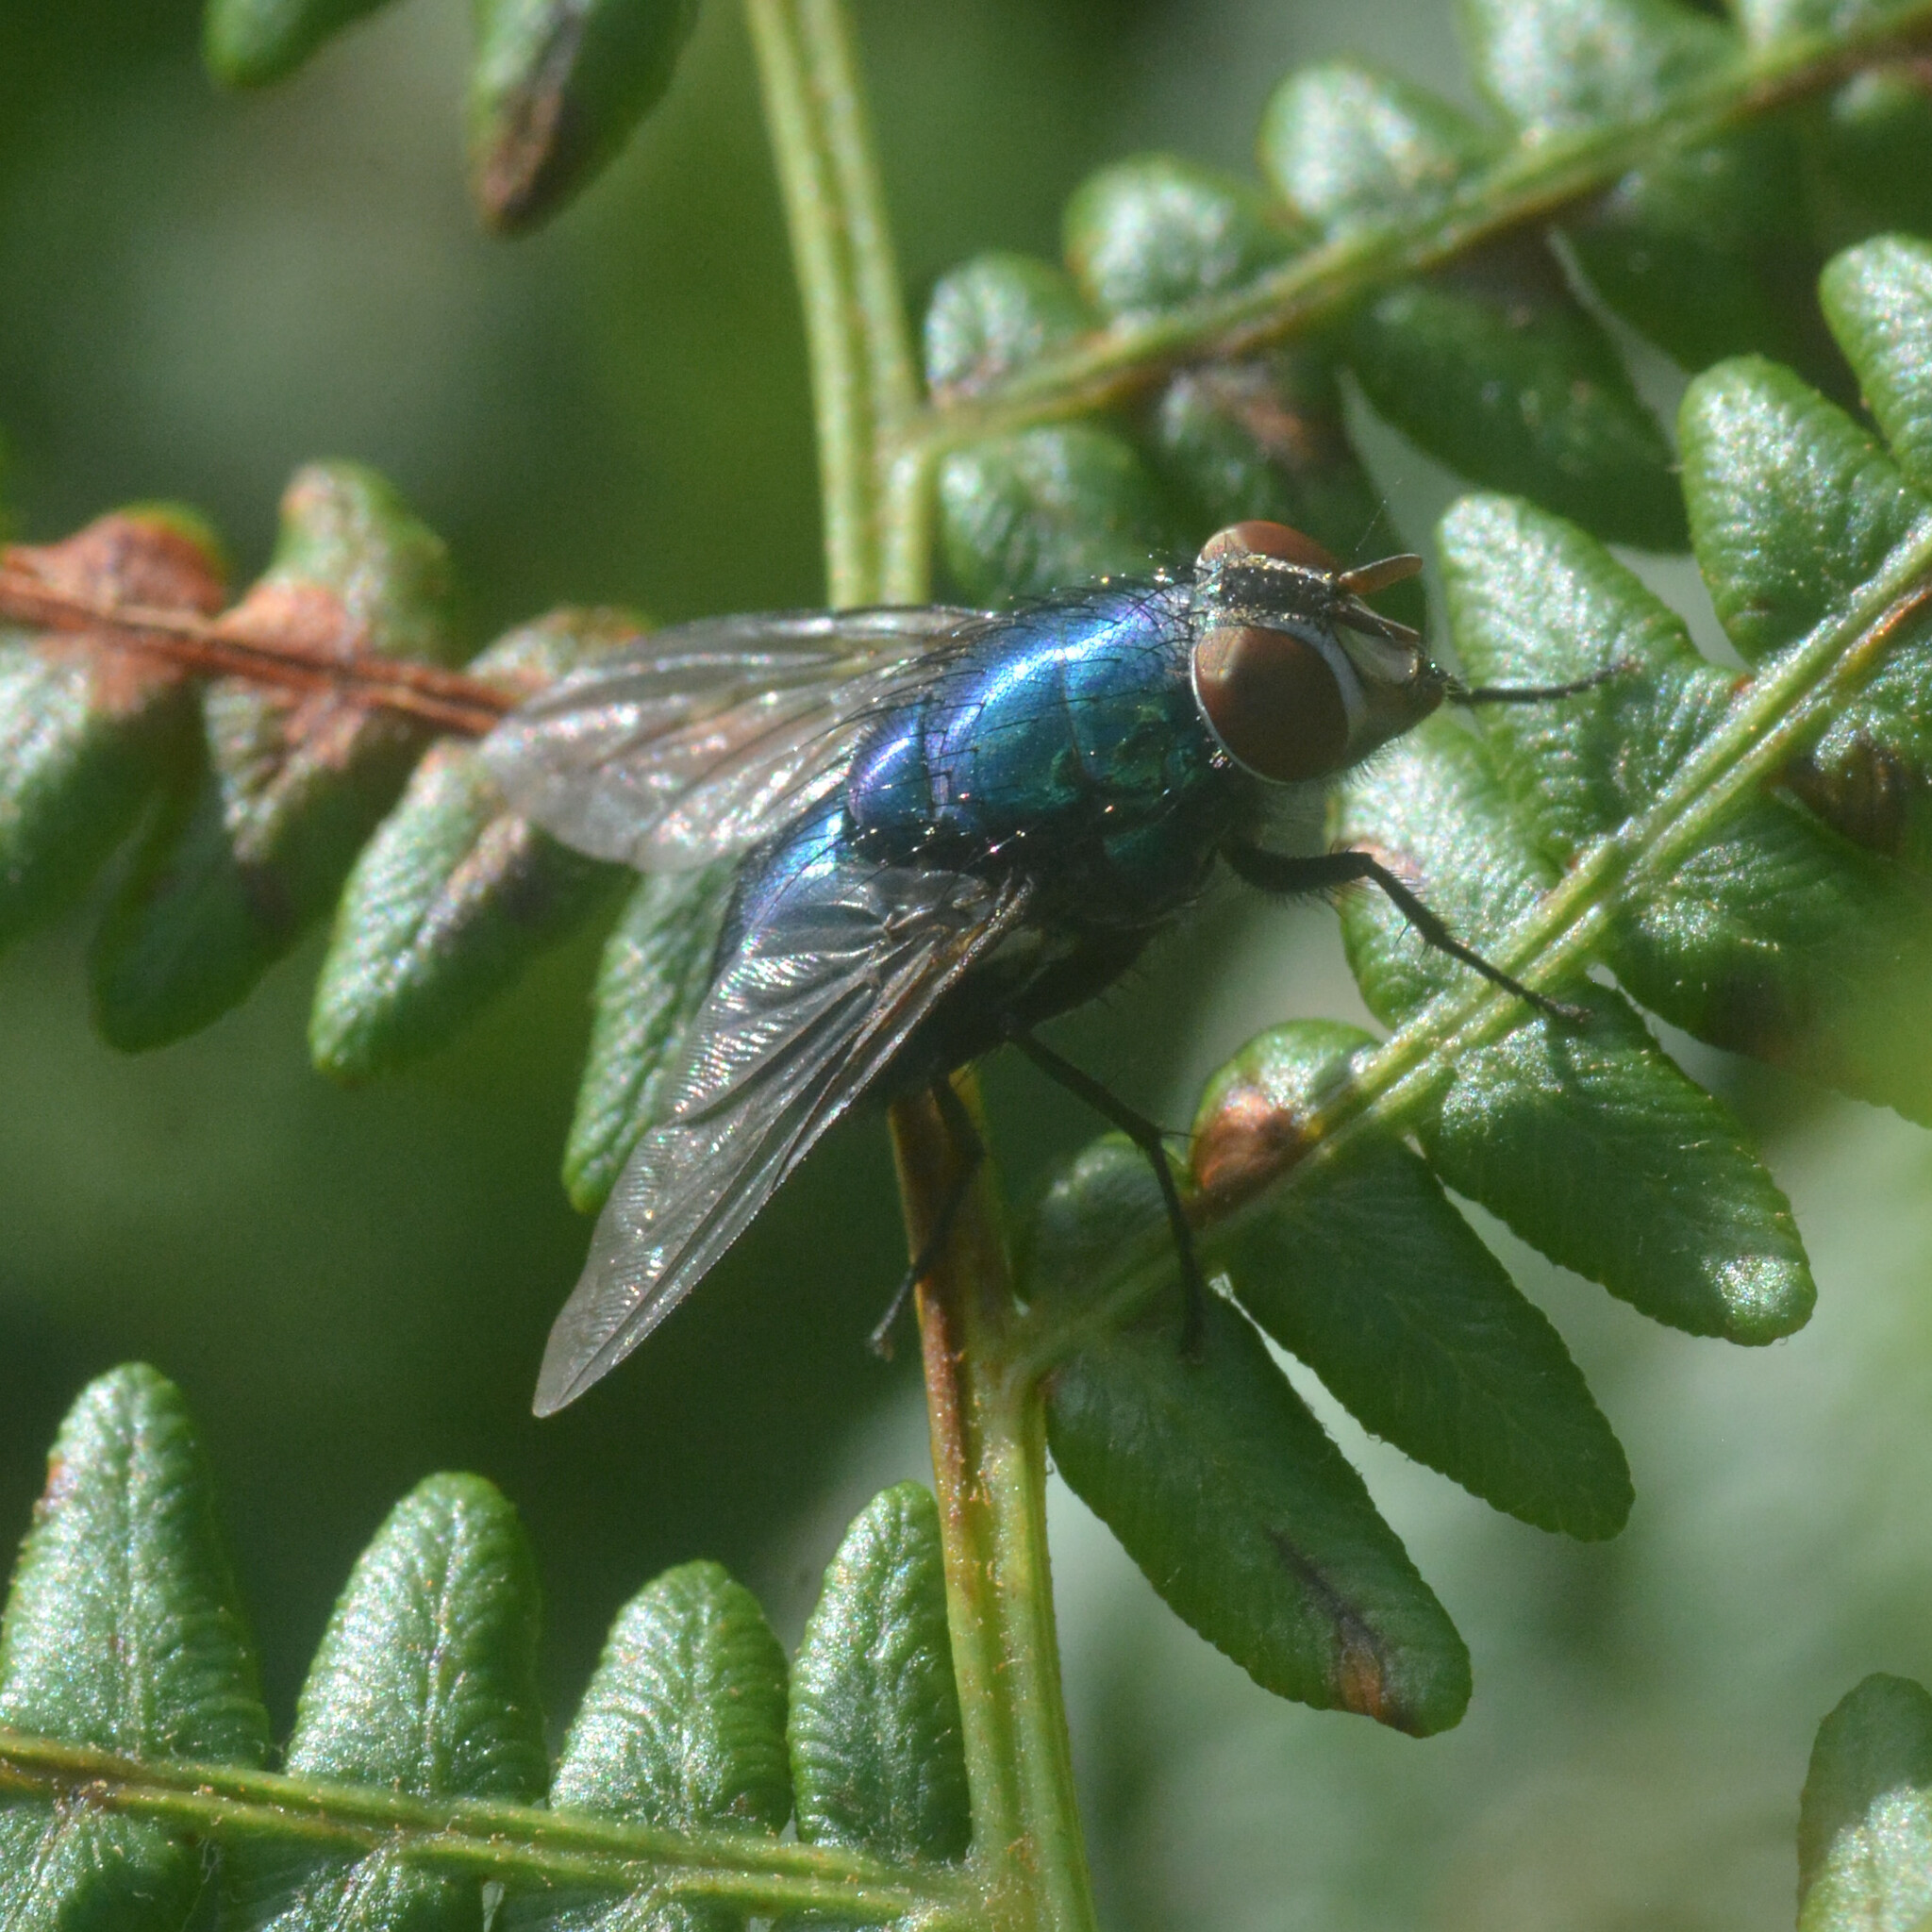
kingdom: Animalia
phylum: Arthropoda
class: Insecta
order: Diptera
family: Calliphoridae
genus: Lucilia
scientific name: Lucilia
